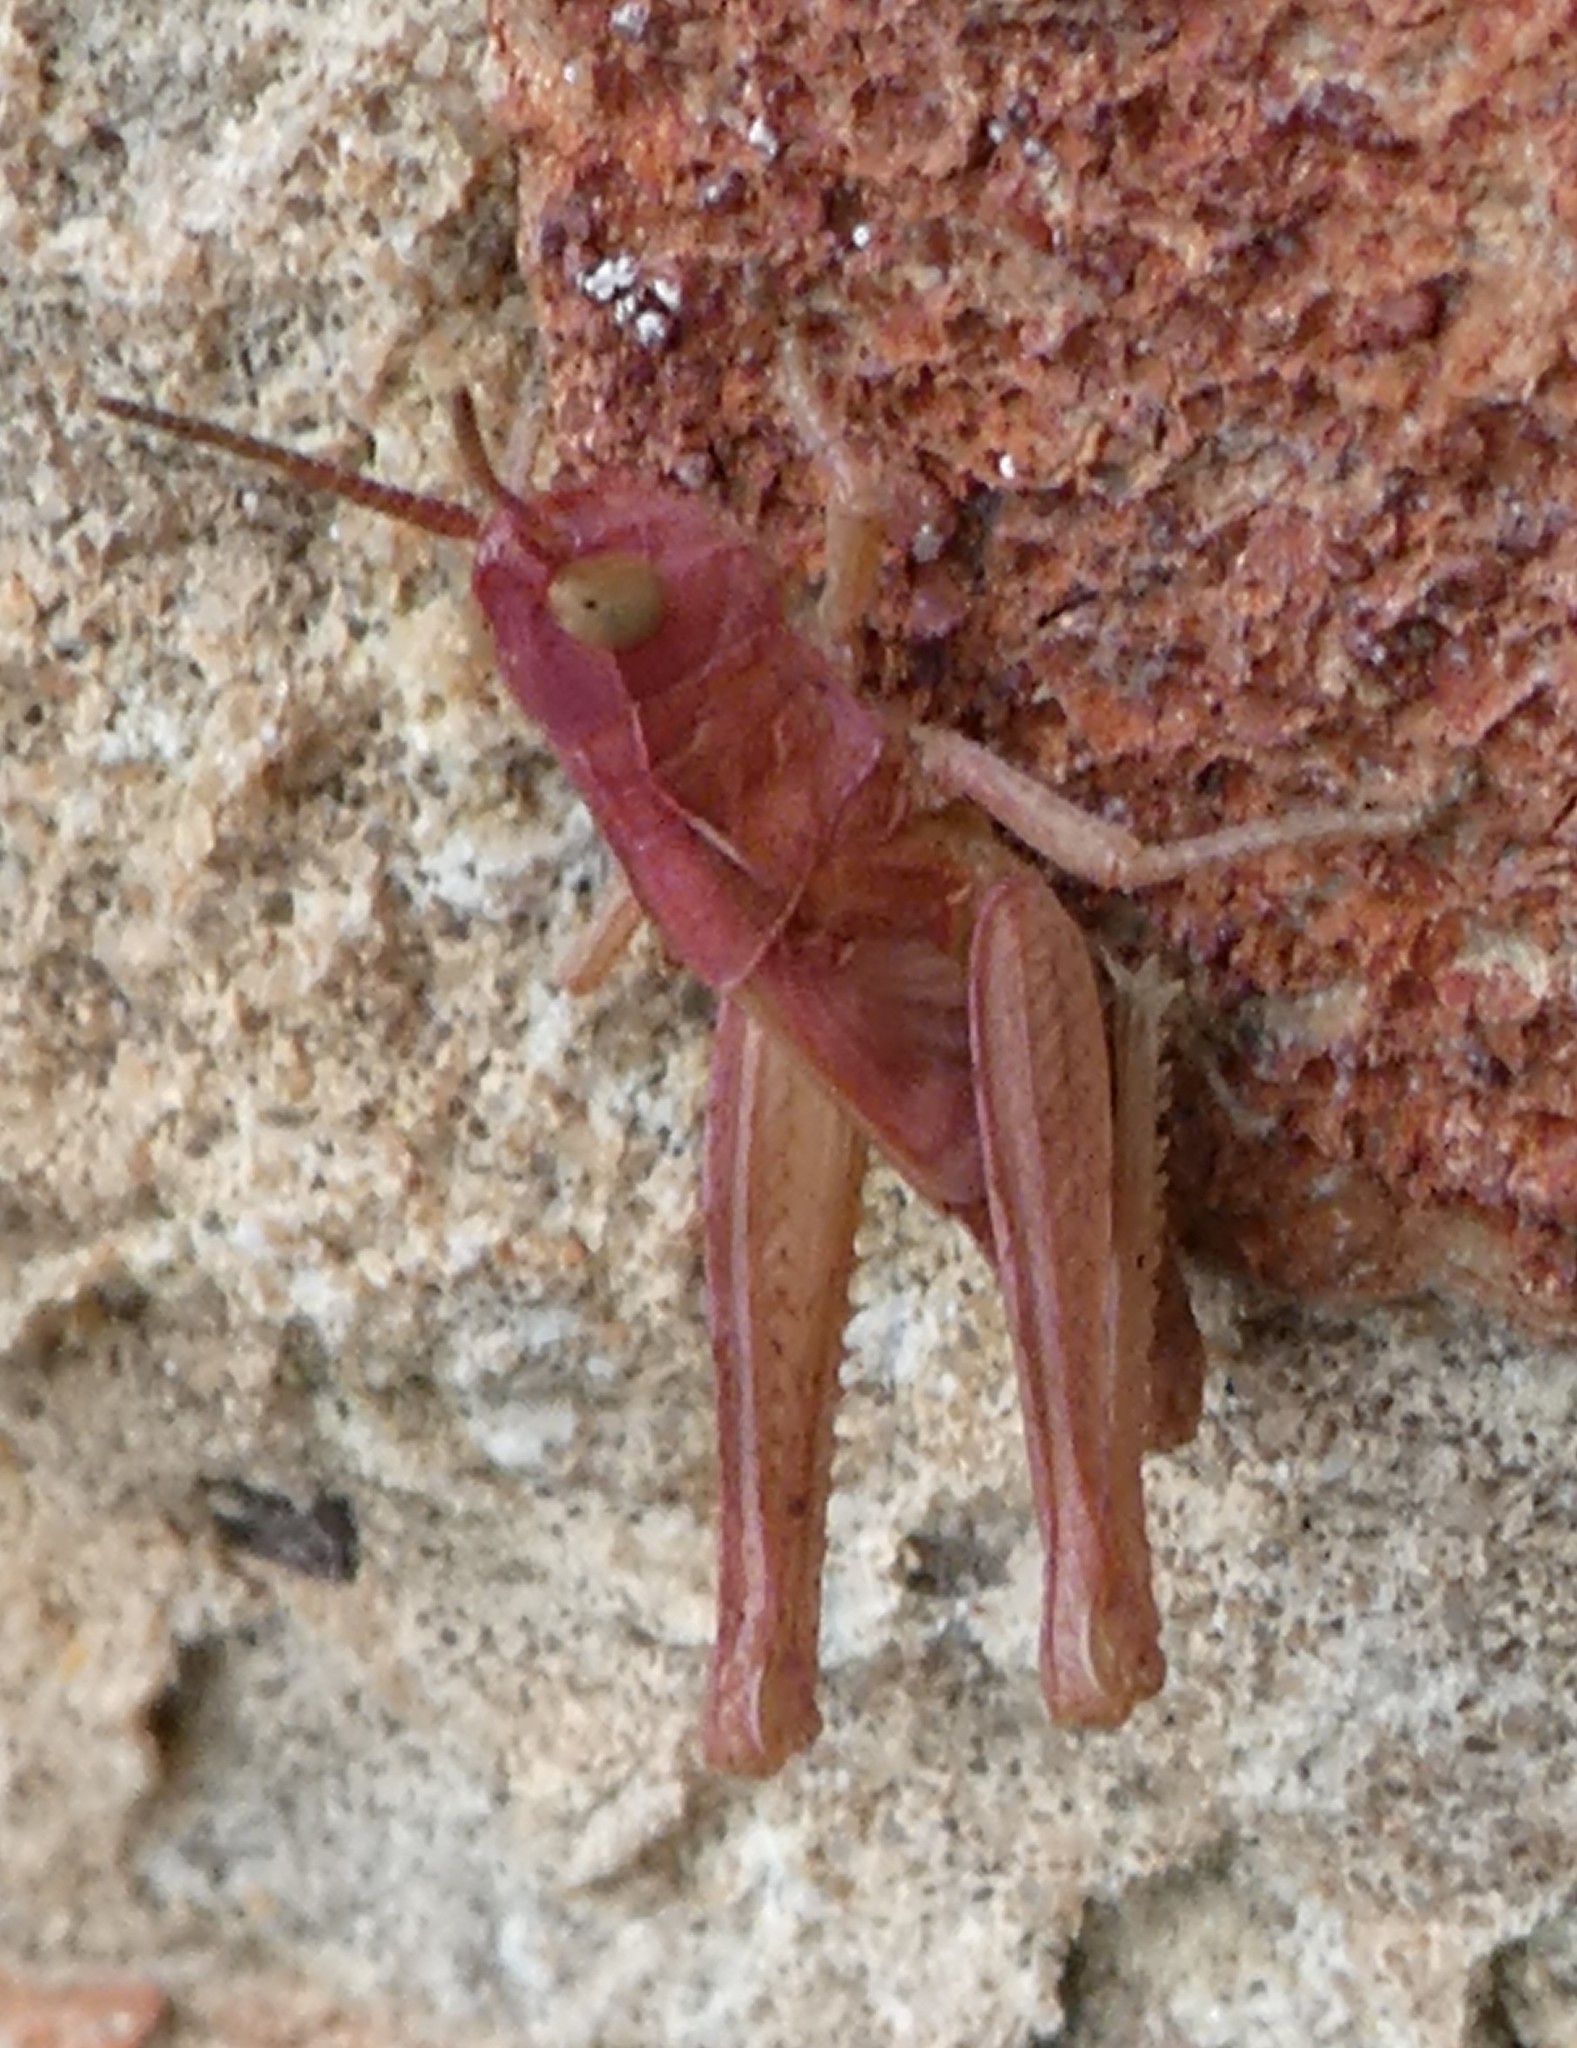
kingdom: Animalia
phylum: Arthropoda
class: Insecta
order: Orthoptera
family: Acrididae
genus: Chorthippus
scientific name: Chorthippus brunneus
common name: Field grasshopper
